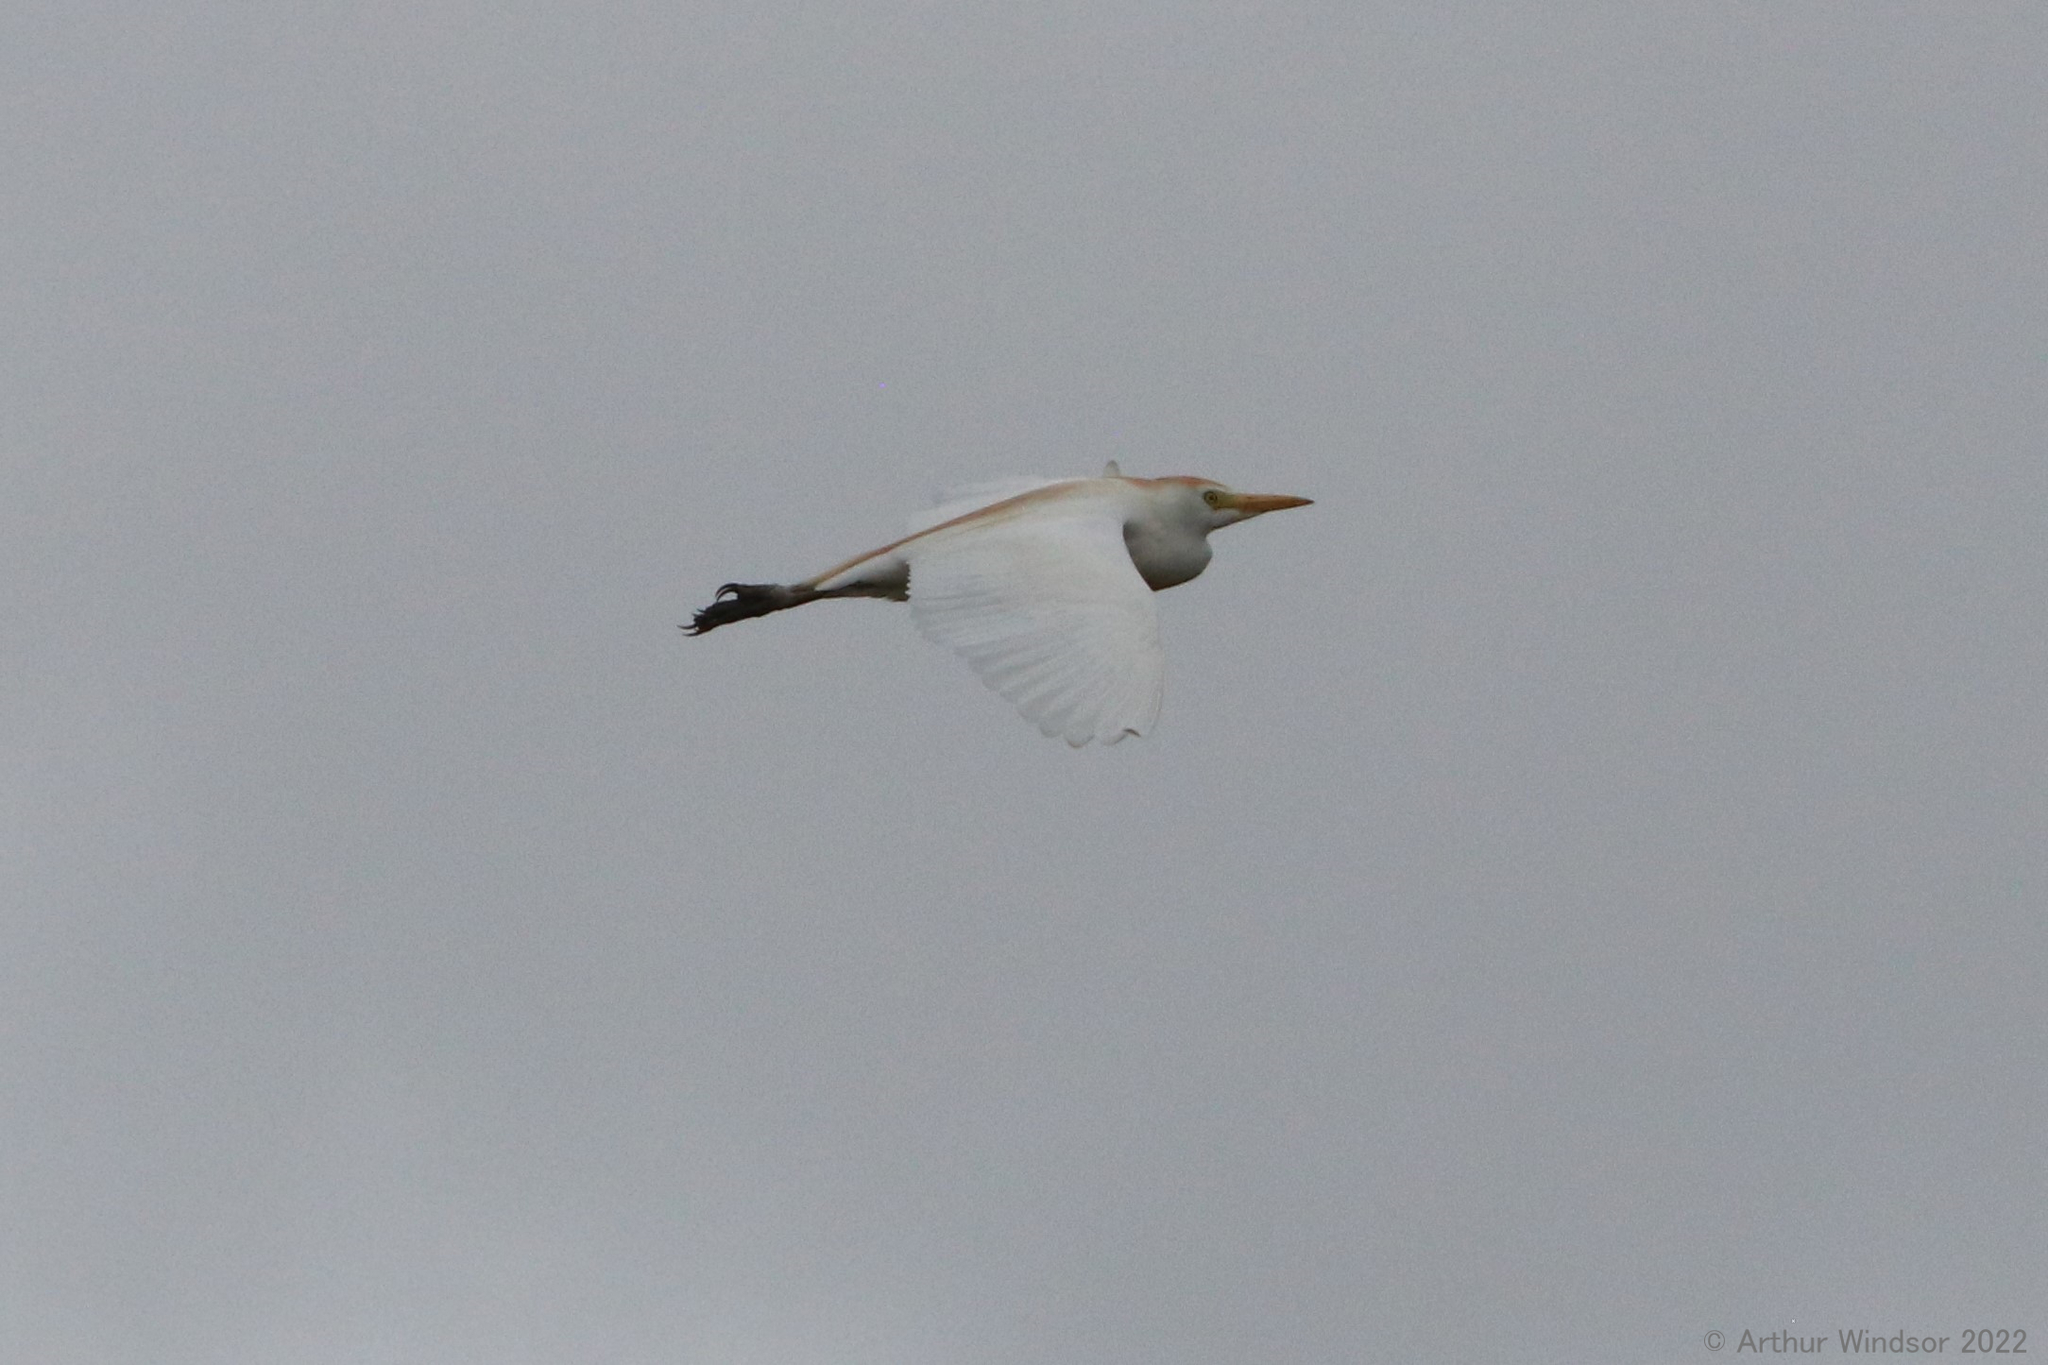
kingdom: Animalia
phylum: Chordata
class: Aves
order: Pelecaniformes
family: Ardeidae
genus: Bubulcus
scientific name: Bubulcus ibis
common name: Cattle egret
